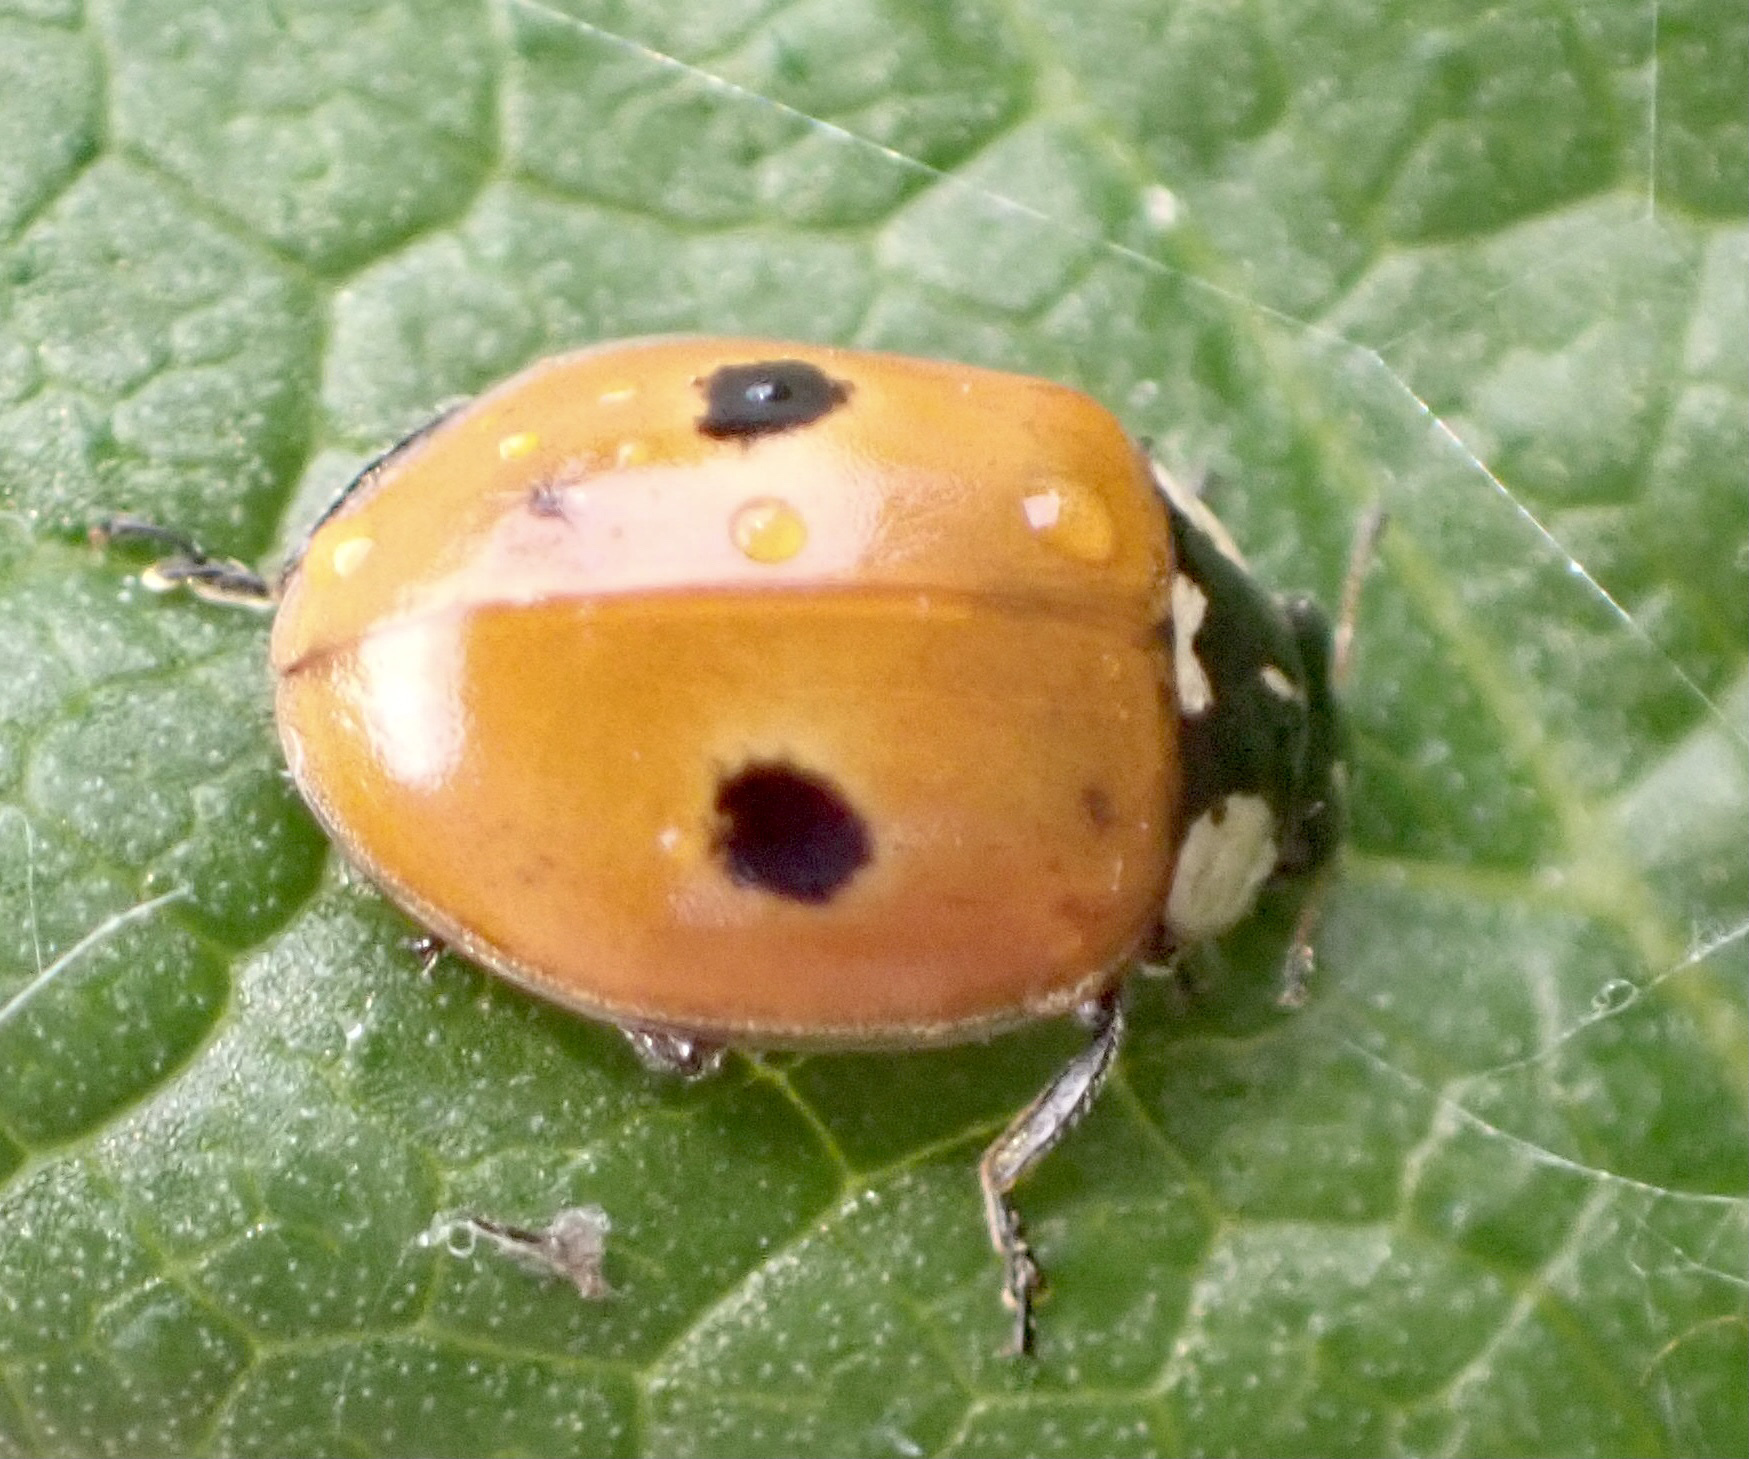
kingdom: Animalia
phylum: Arthropoda
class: Insecta
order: Coleoptera
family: Coccinellidae
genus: Adalia
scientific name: Adalia bipunctata
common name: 2-spot ladybird
